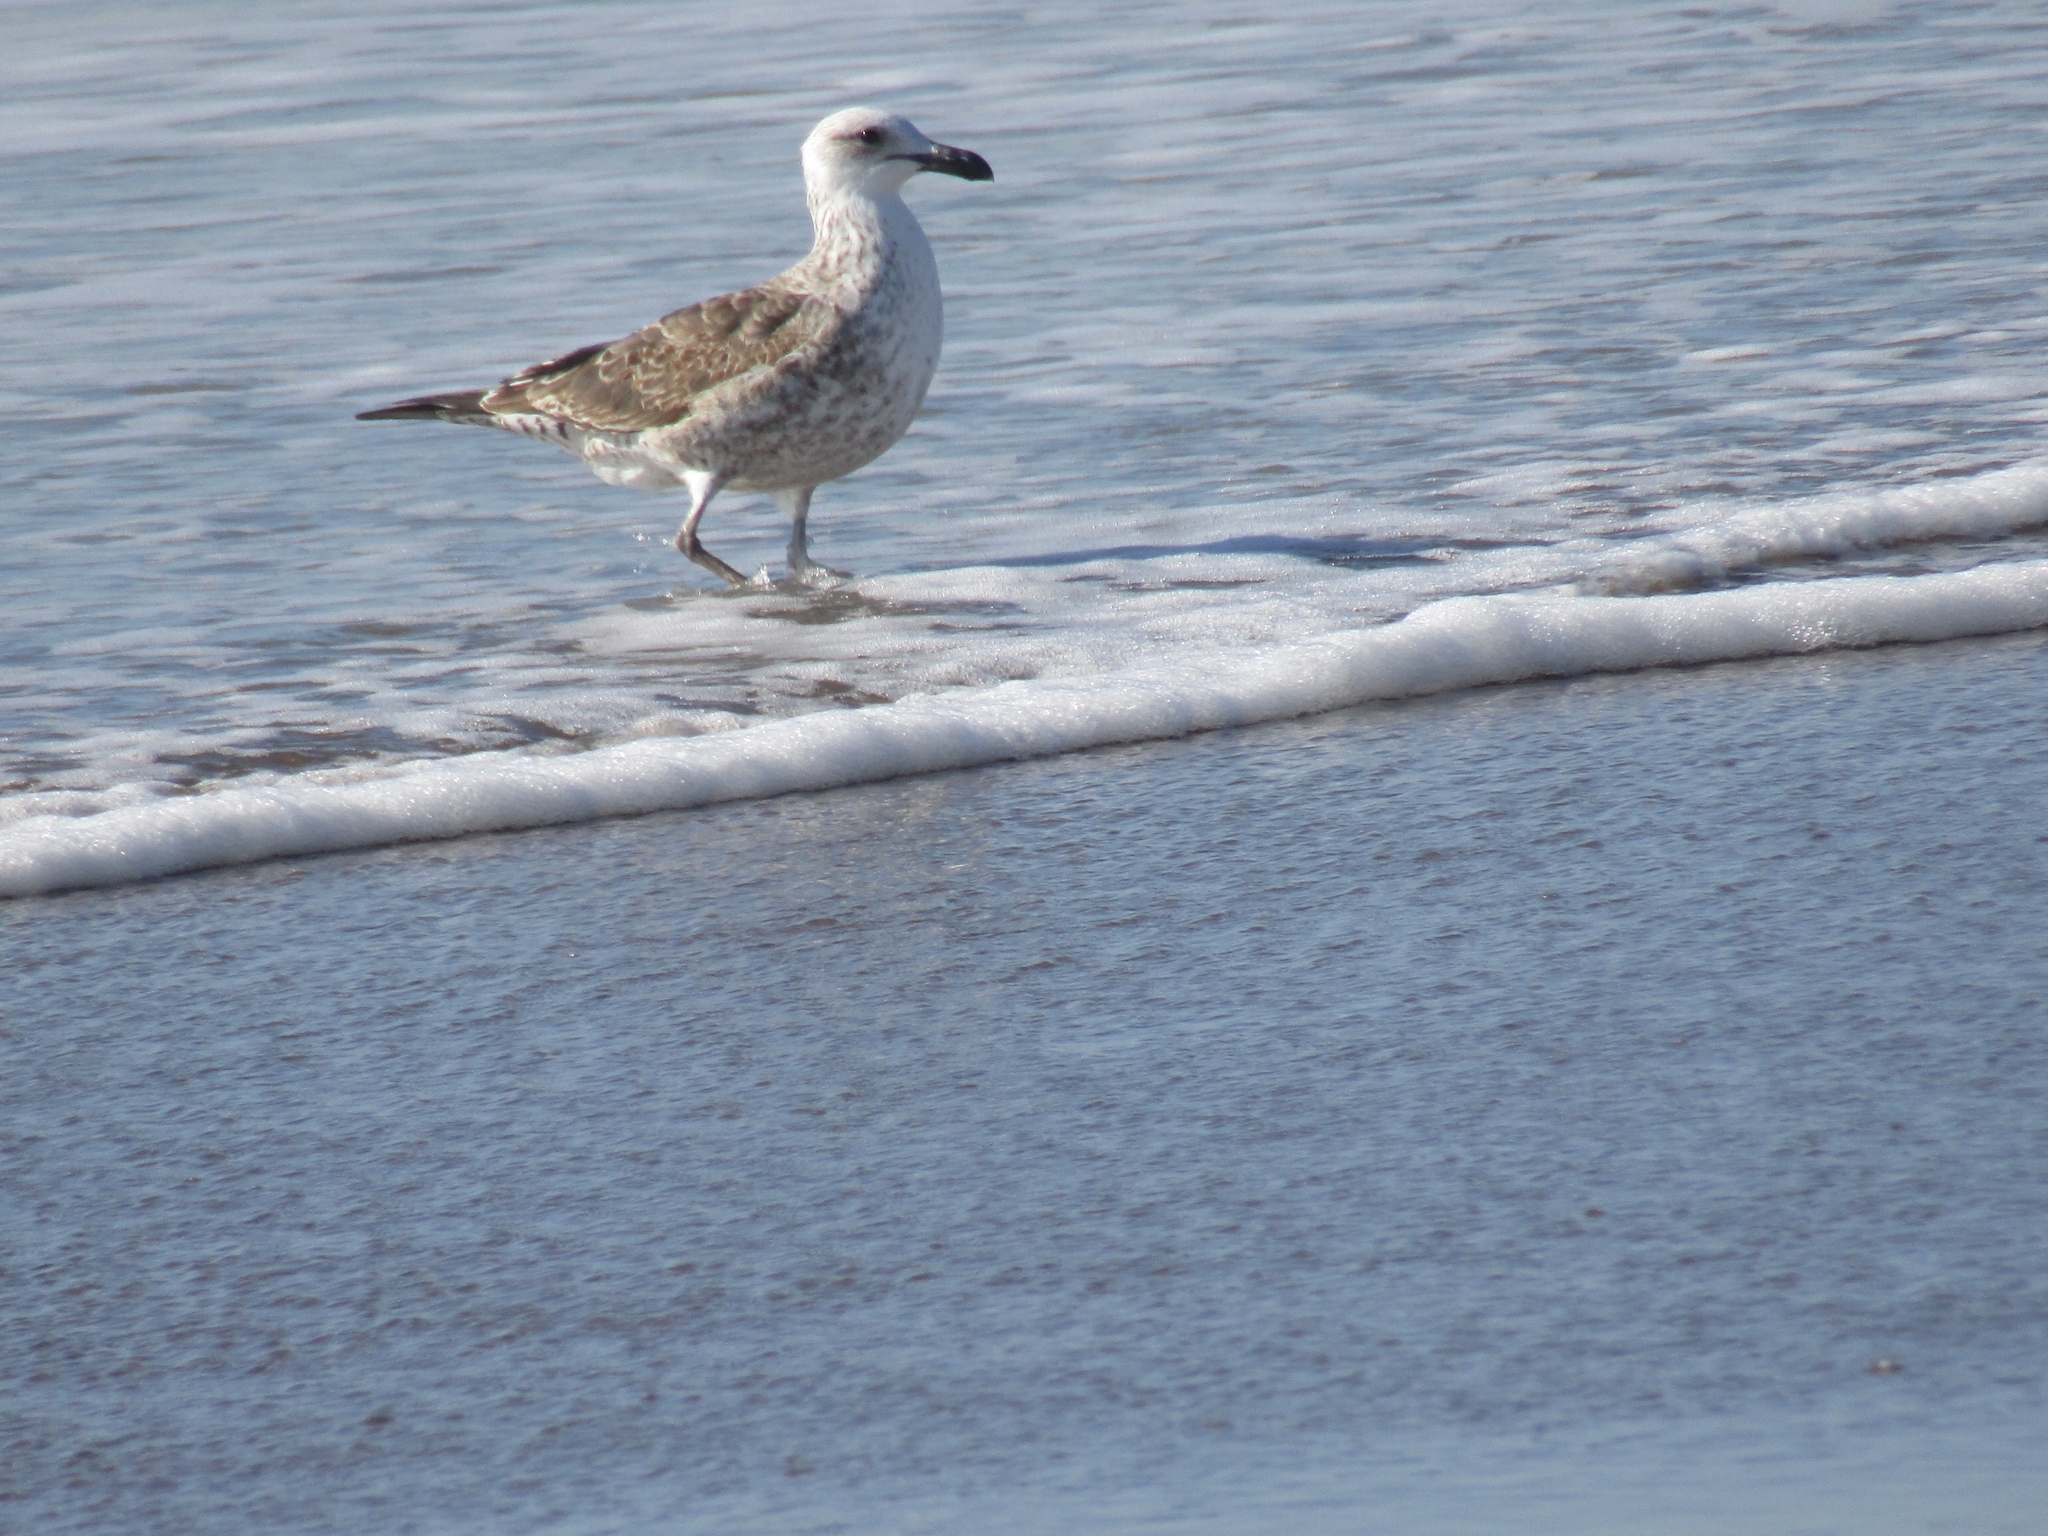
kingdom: Animalia
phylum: Chordata
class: Aves
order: Charadriiformes
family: Laridae
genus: Larus
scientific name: Larus dominicanus
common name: Kelp gull
